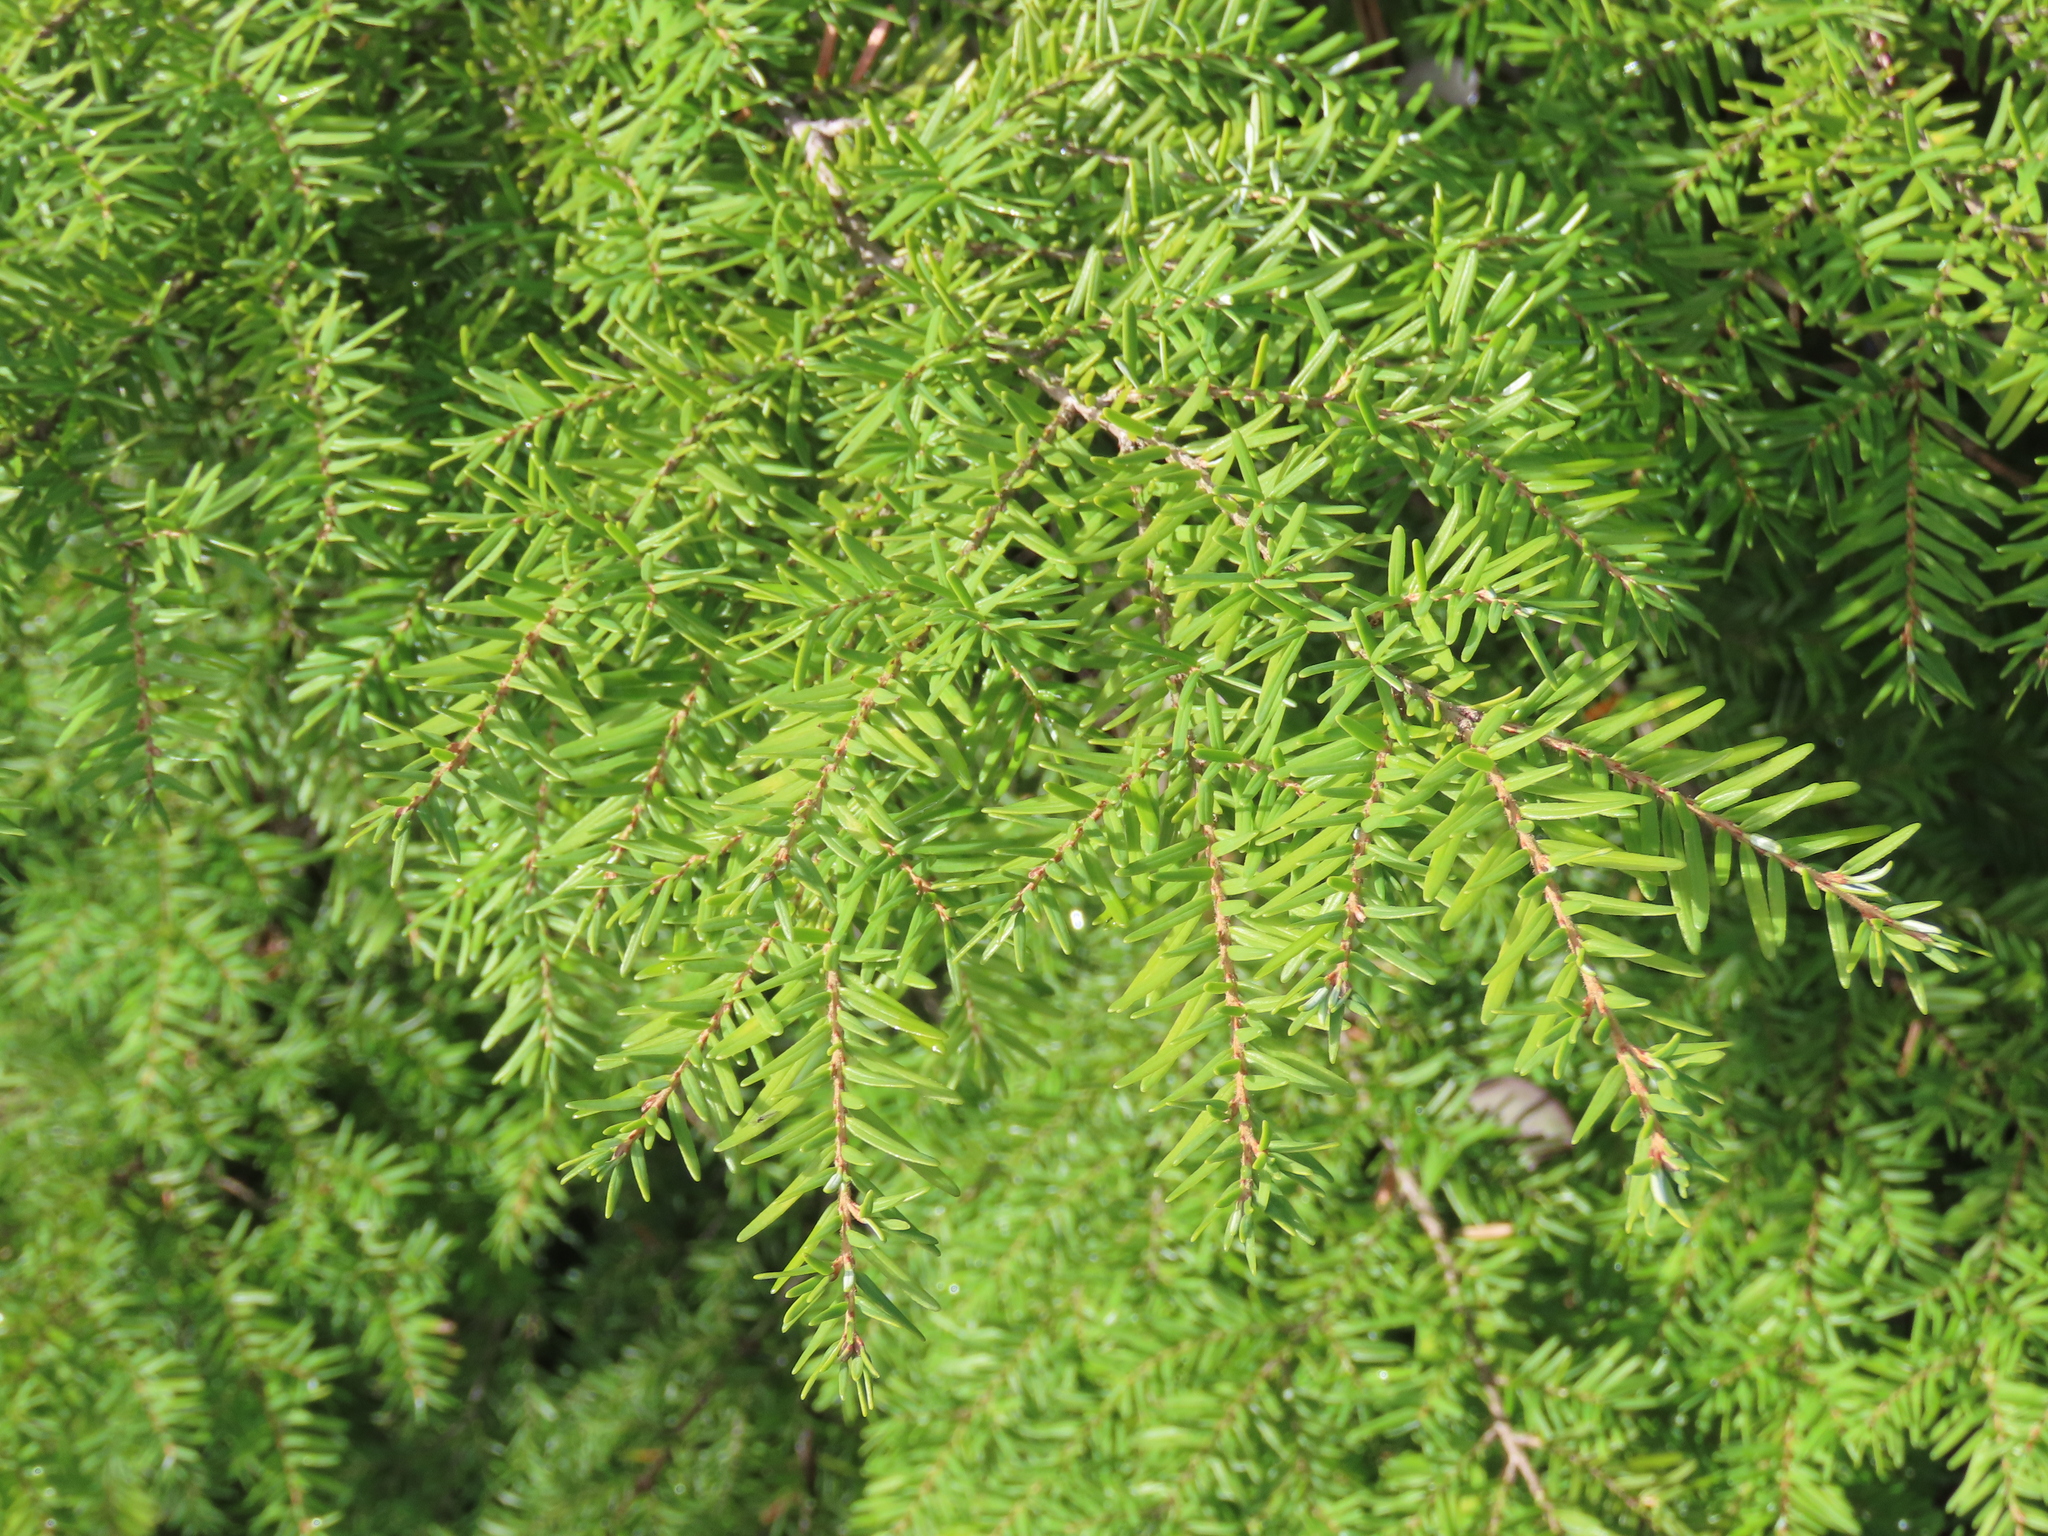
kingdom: Plantae
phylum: Tracheophyta
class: Pinopsida
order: Pinales
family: Pinaceae
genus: Tsuga
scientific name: Tsuga heterophylla
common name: Western hemlock
